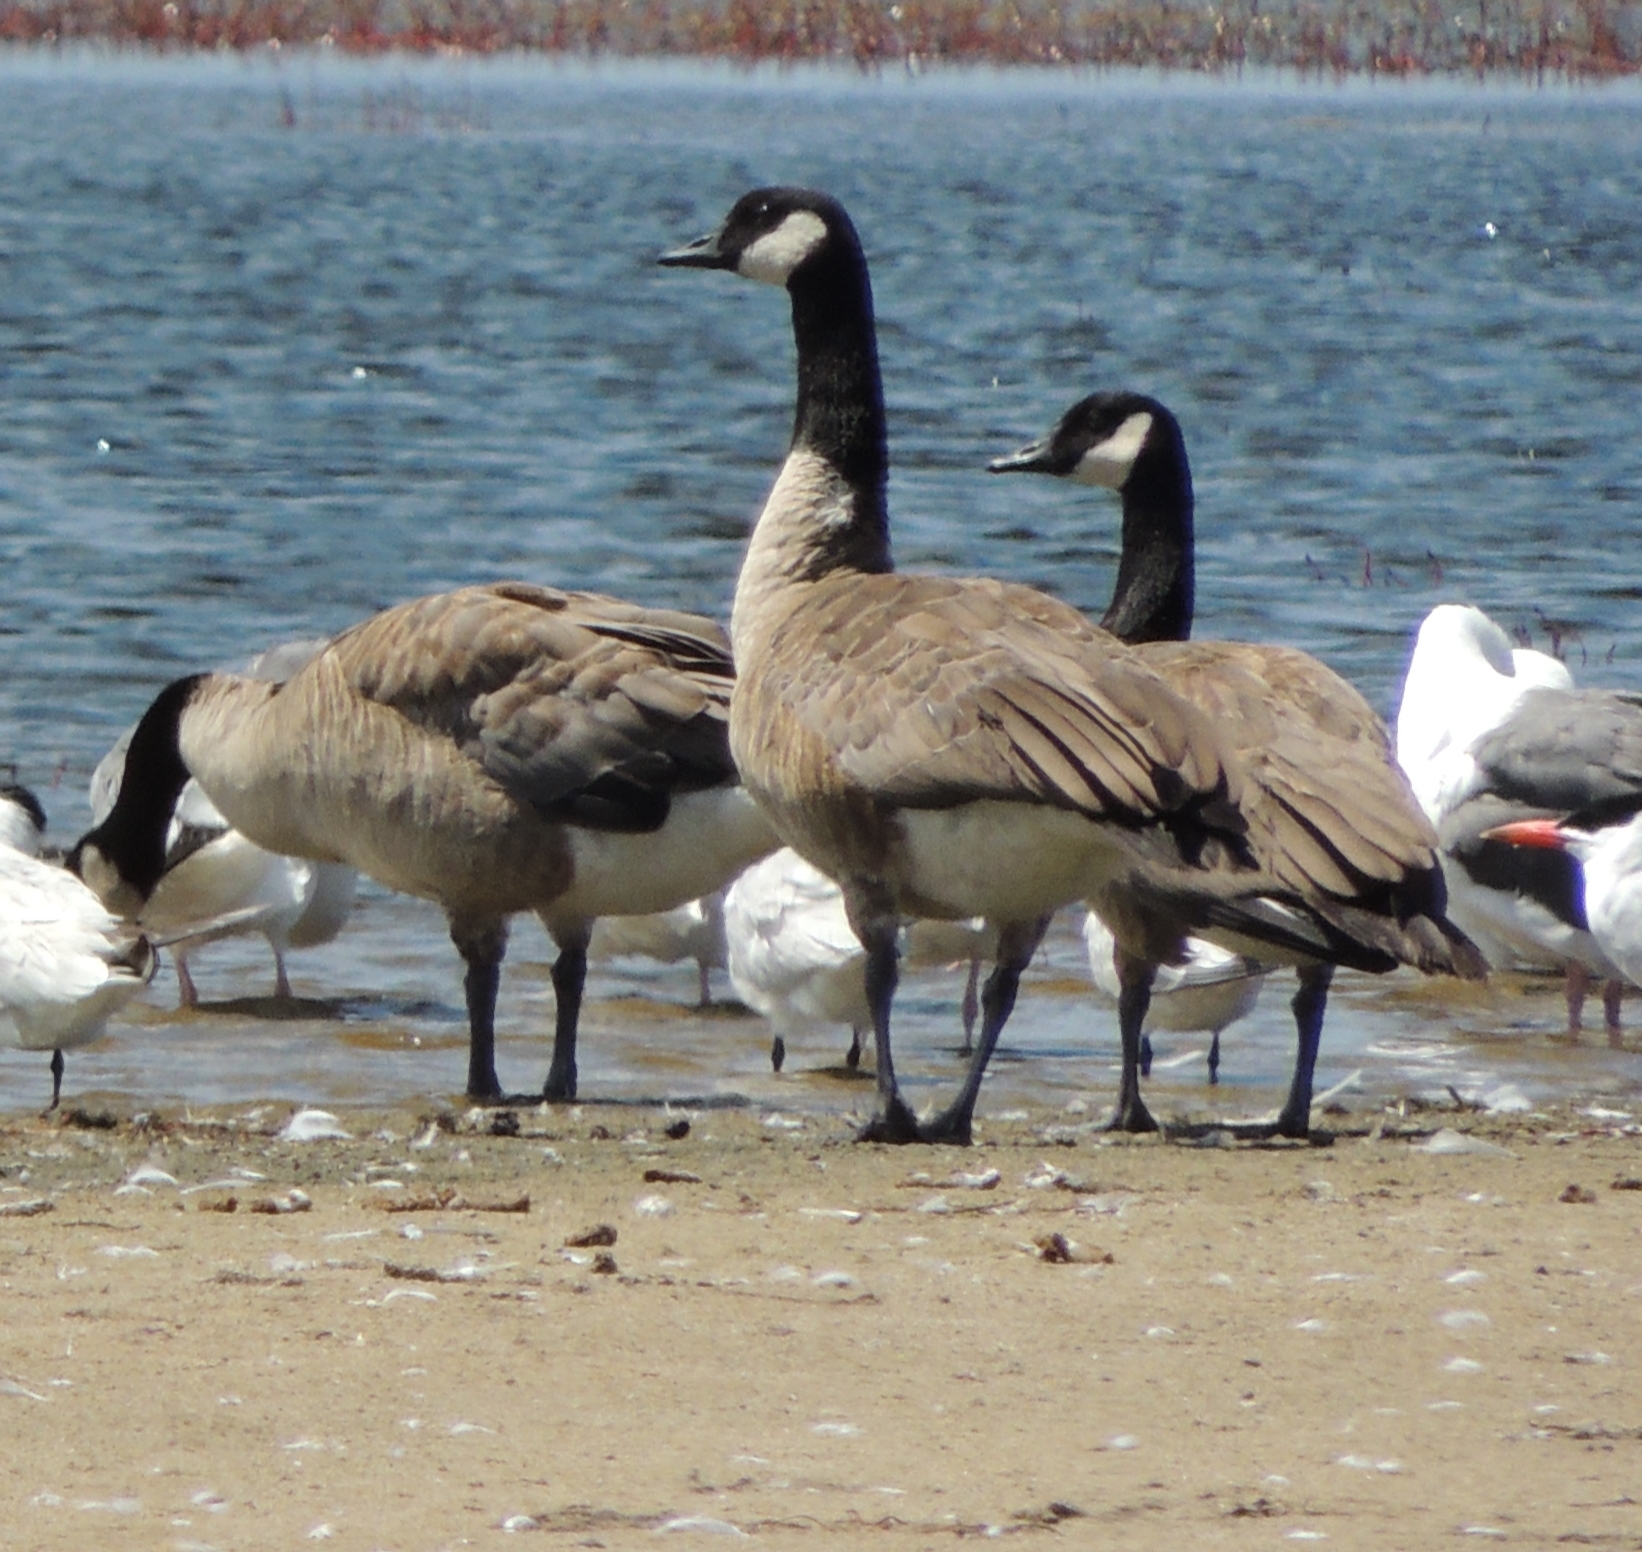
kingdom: Animalia
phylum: Chordata
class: Aves
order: Anseriformes
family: Anatidae
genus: Branta
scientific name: Branta canadensis
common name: Canada goose
